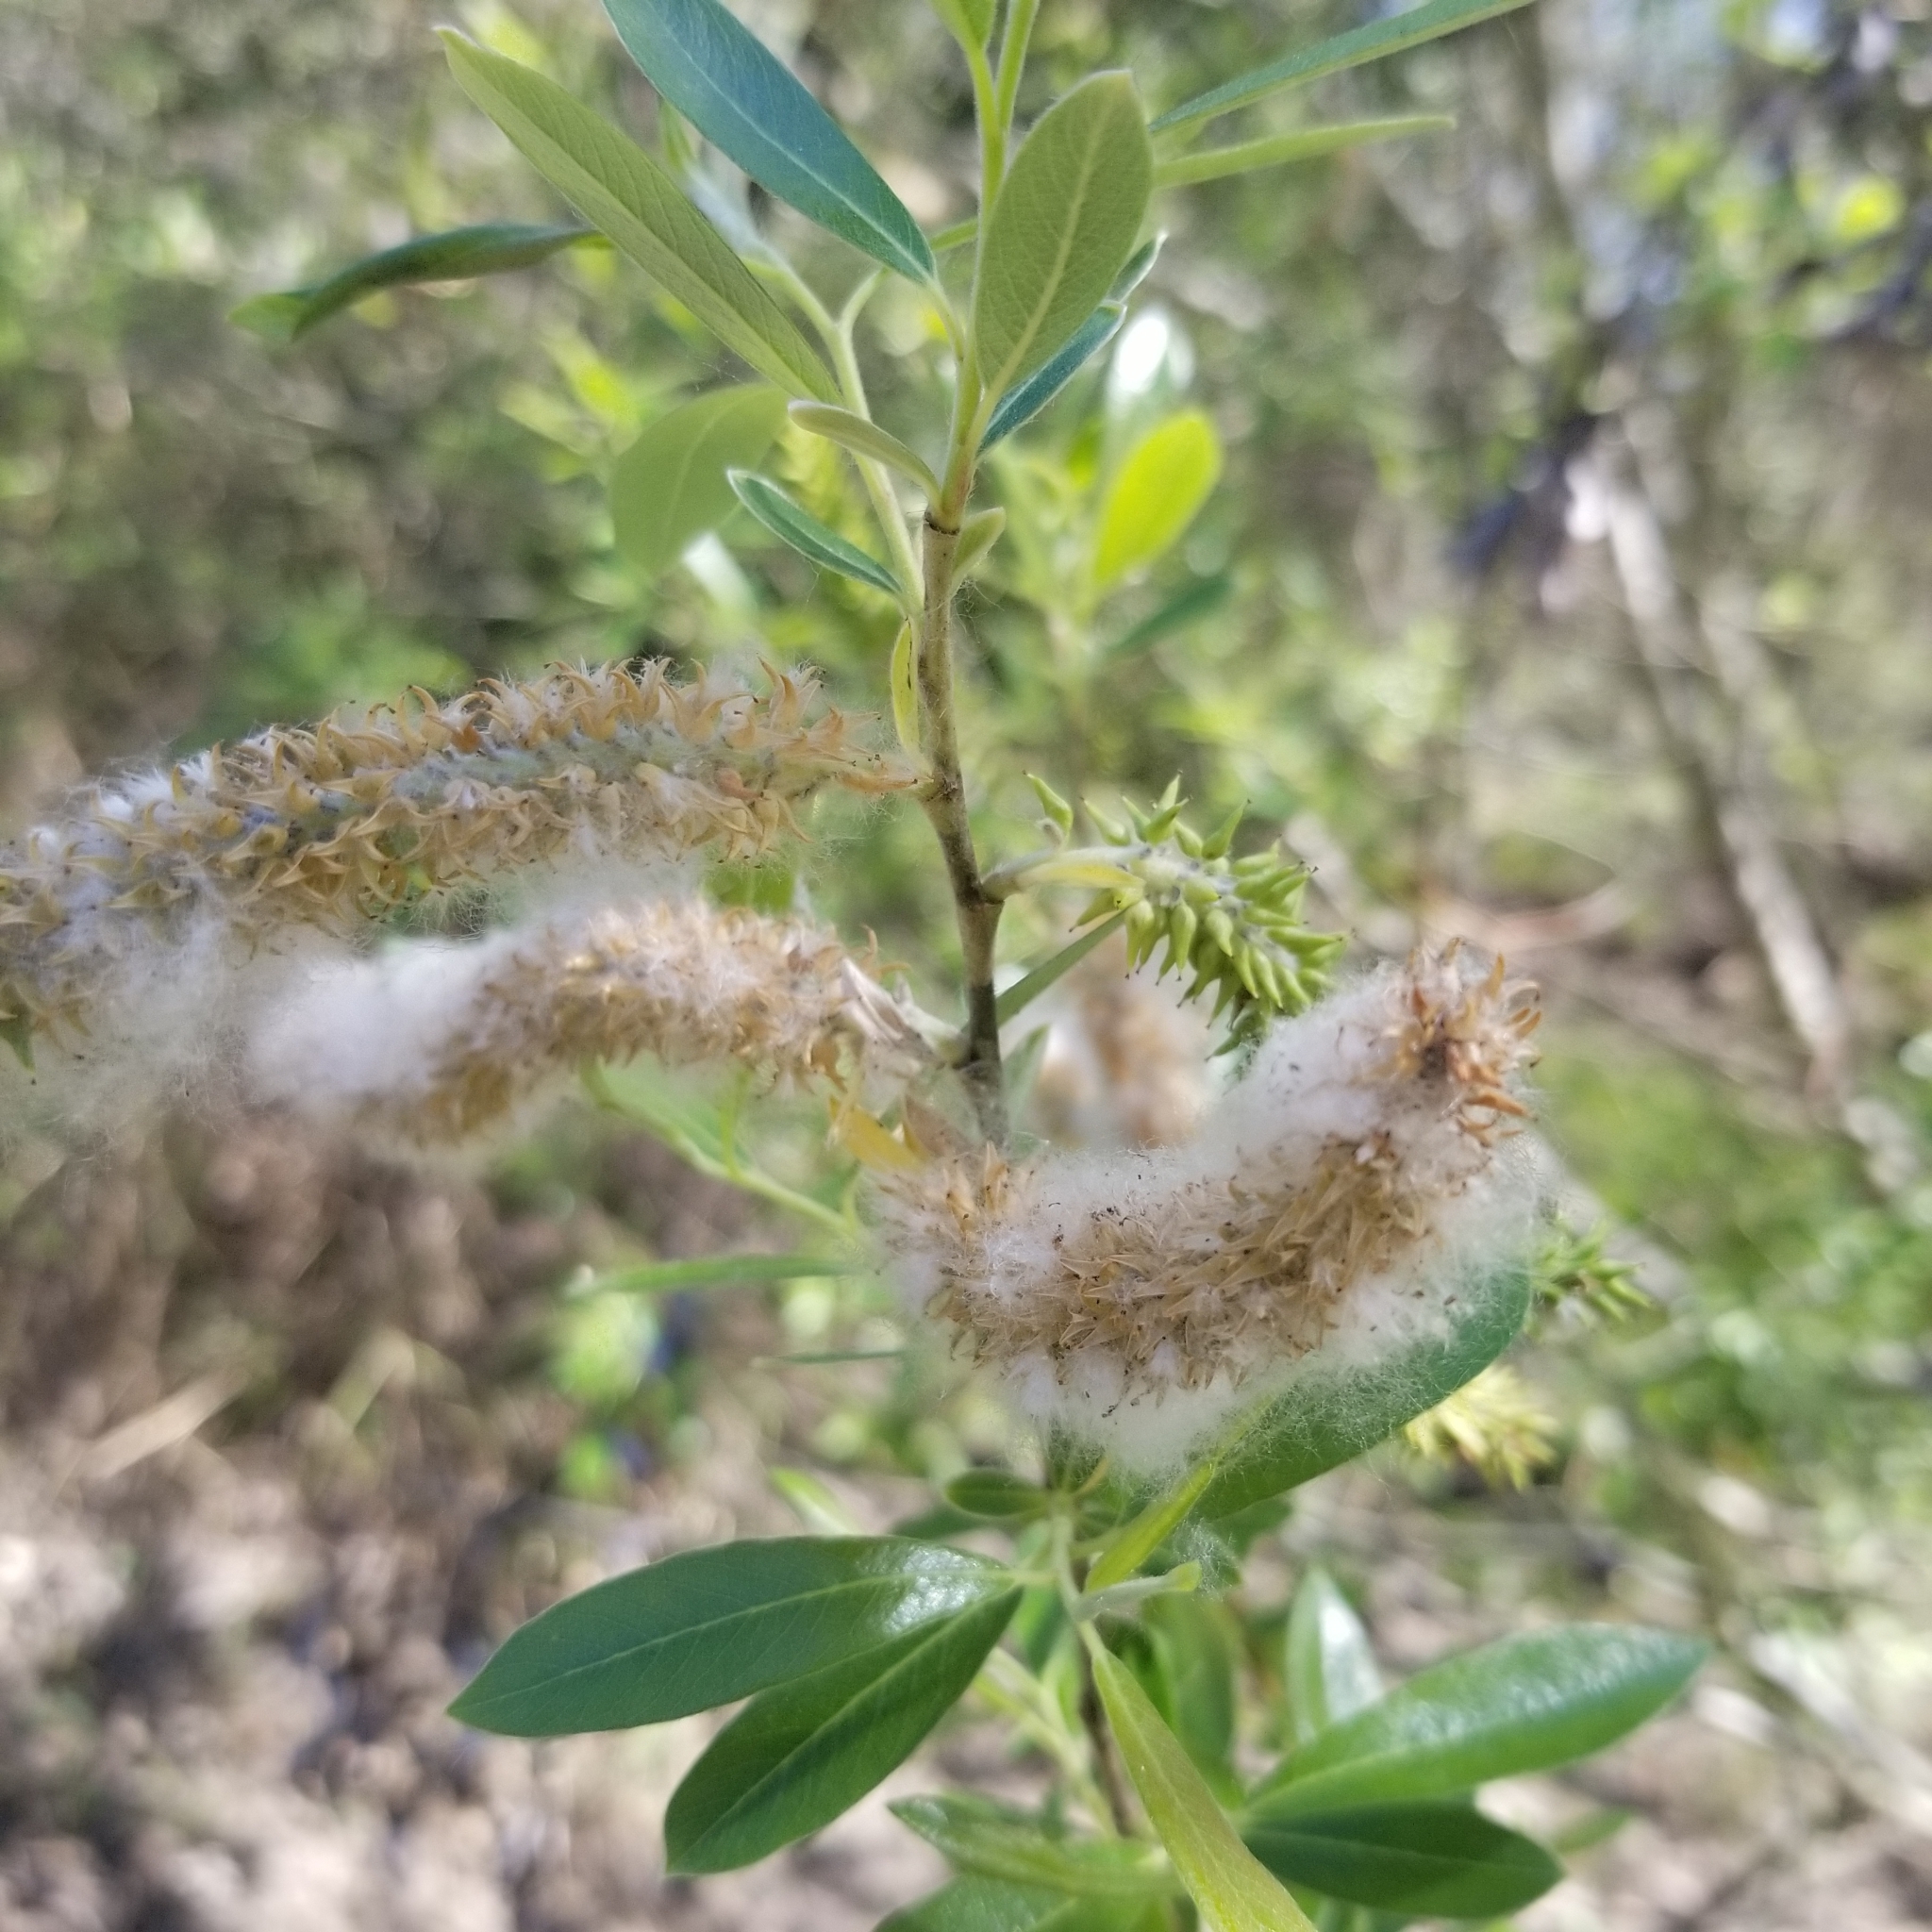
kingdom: Plantae
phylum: Tracheophyta
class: Magnoliopsida
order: Malpighiales
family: Salicaceae
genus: Salix
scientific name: Salix lasiolepis
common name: Arroyo willow
